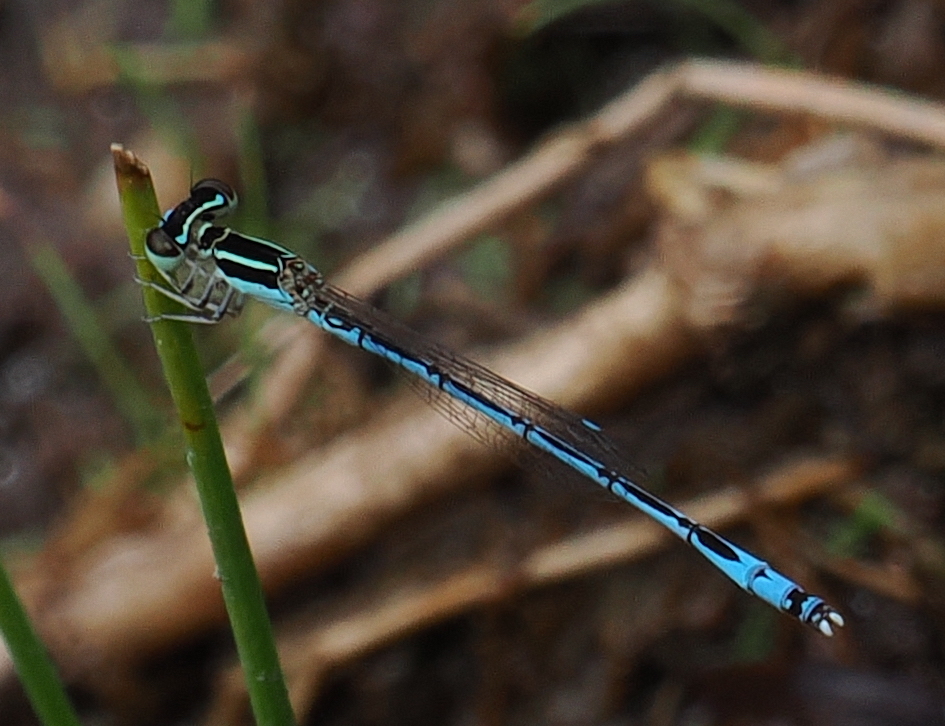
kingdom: Animalia
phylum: Arthropoda
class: Insecta
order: Odonata
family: Coenagrionidae
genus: Agriocnemis
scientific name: Agriocnemis nana
